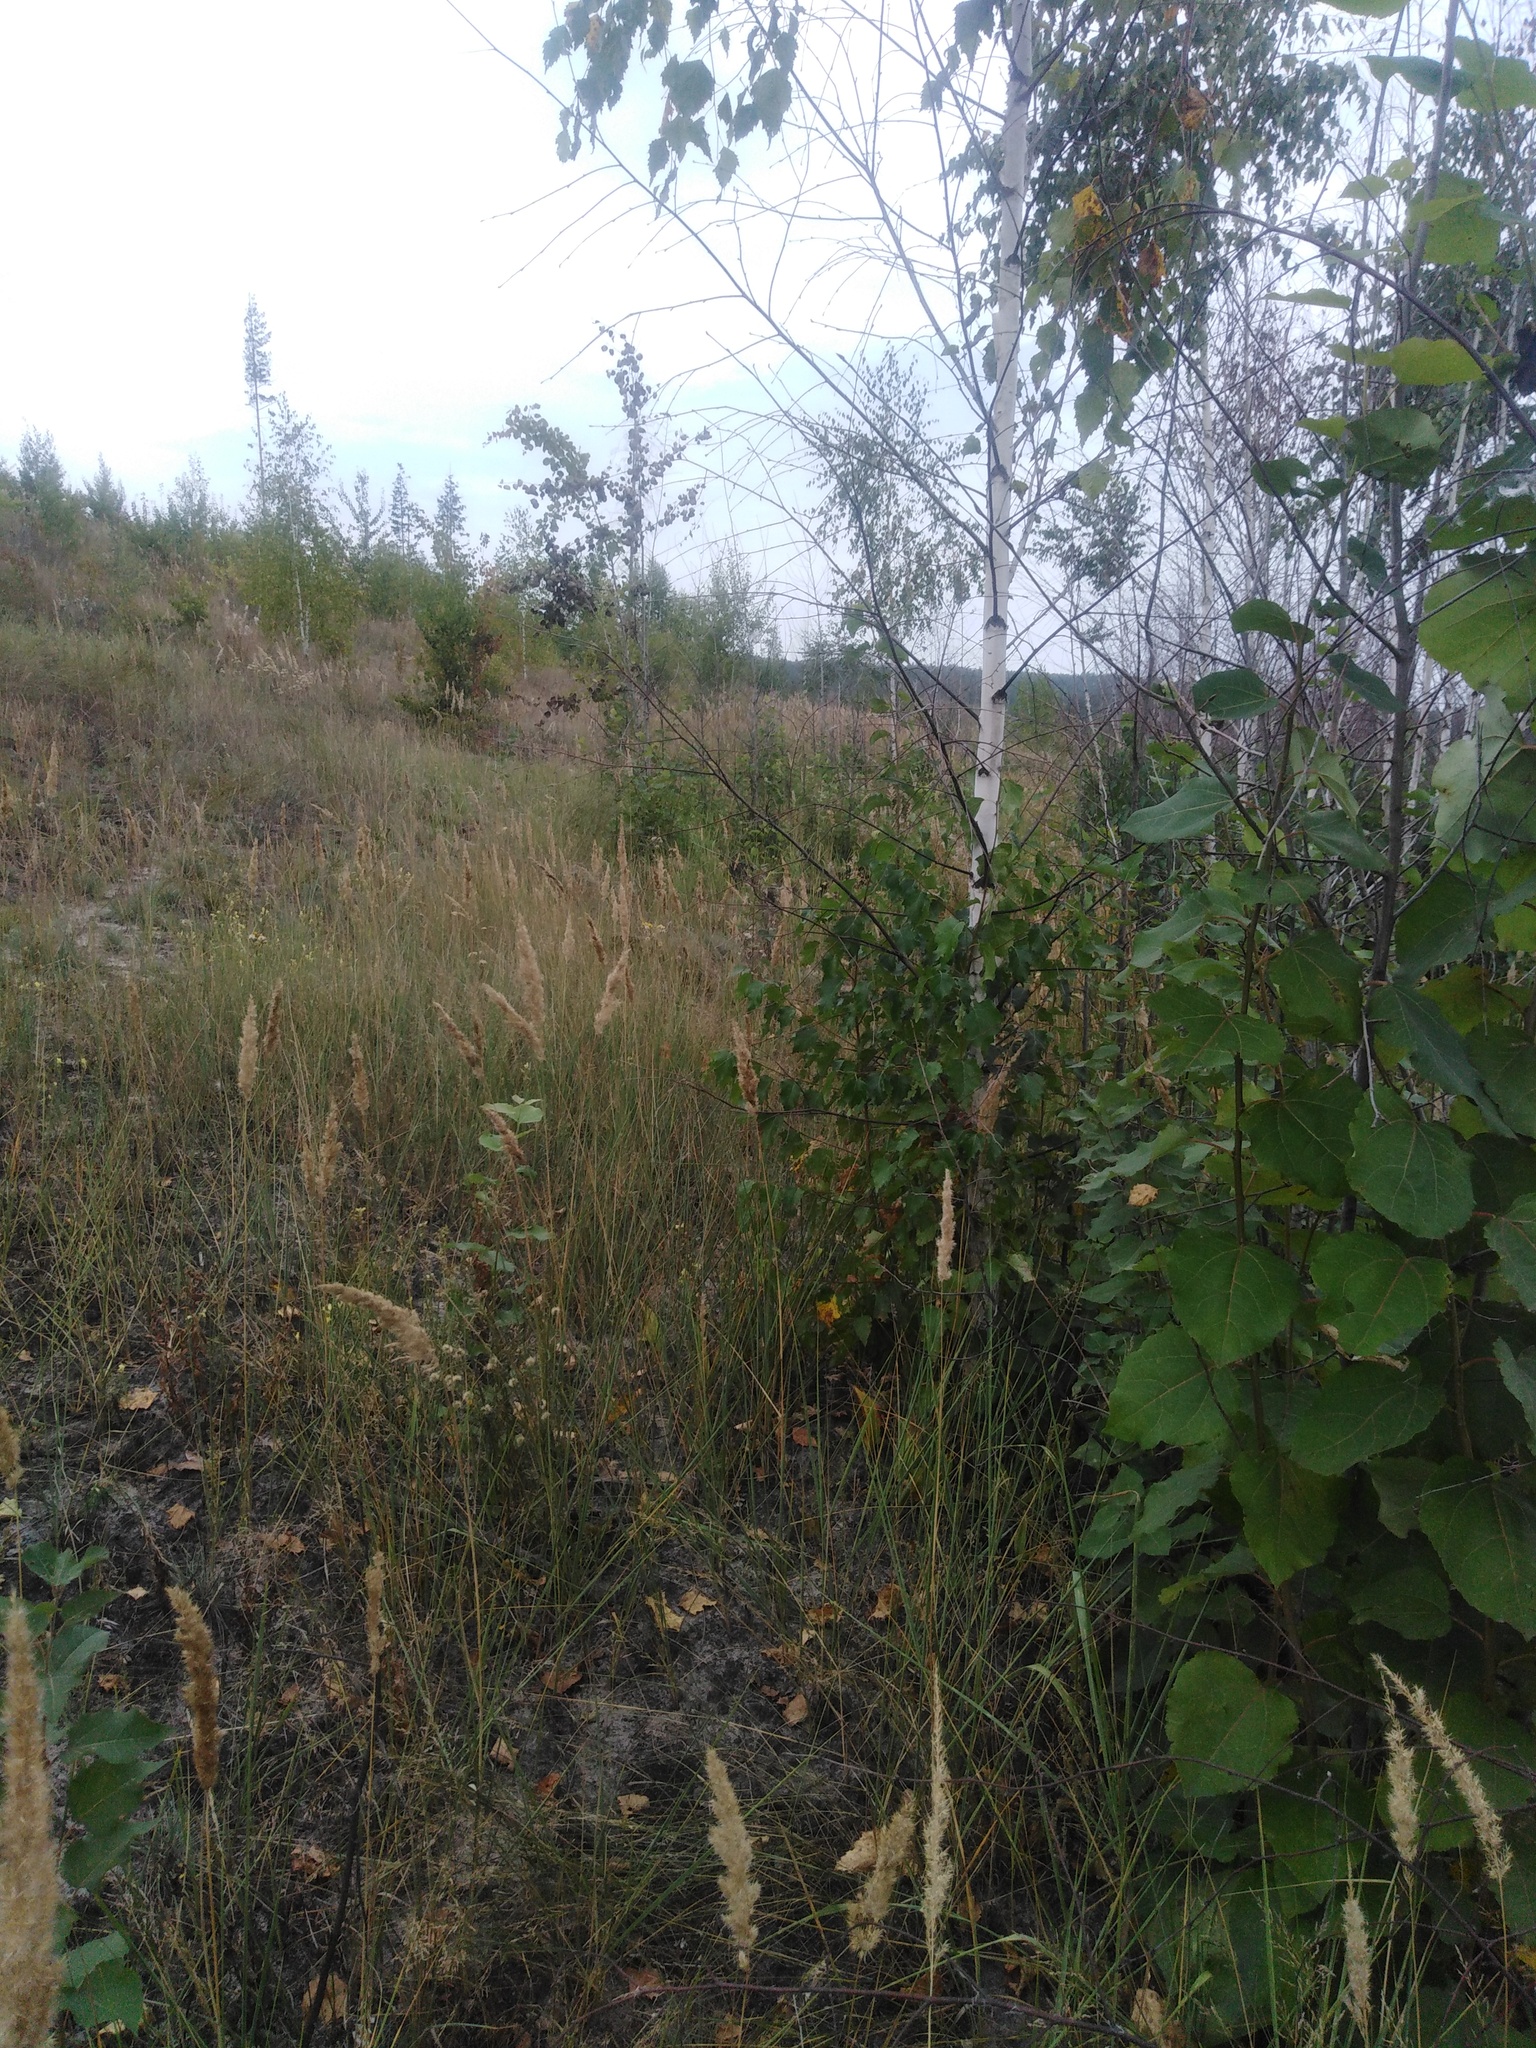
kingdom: Plantae
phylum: Tracheophyta
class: Magnoliopsida
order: Fagales
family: Betulaceae
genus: Betula
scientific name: Betula pendula
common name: Silver birch
